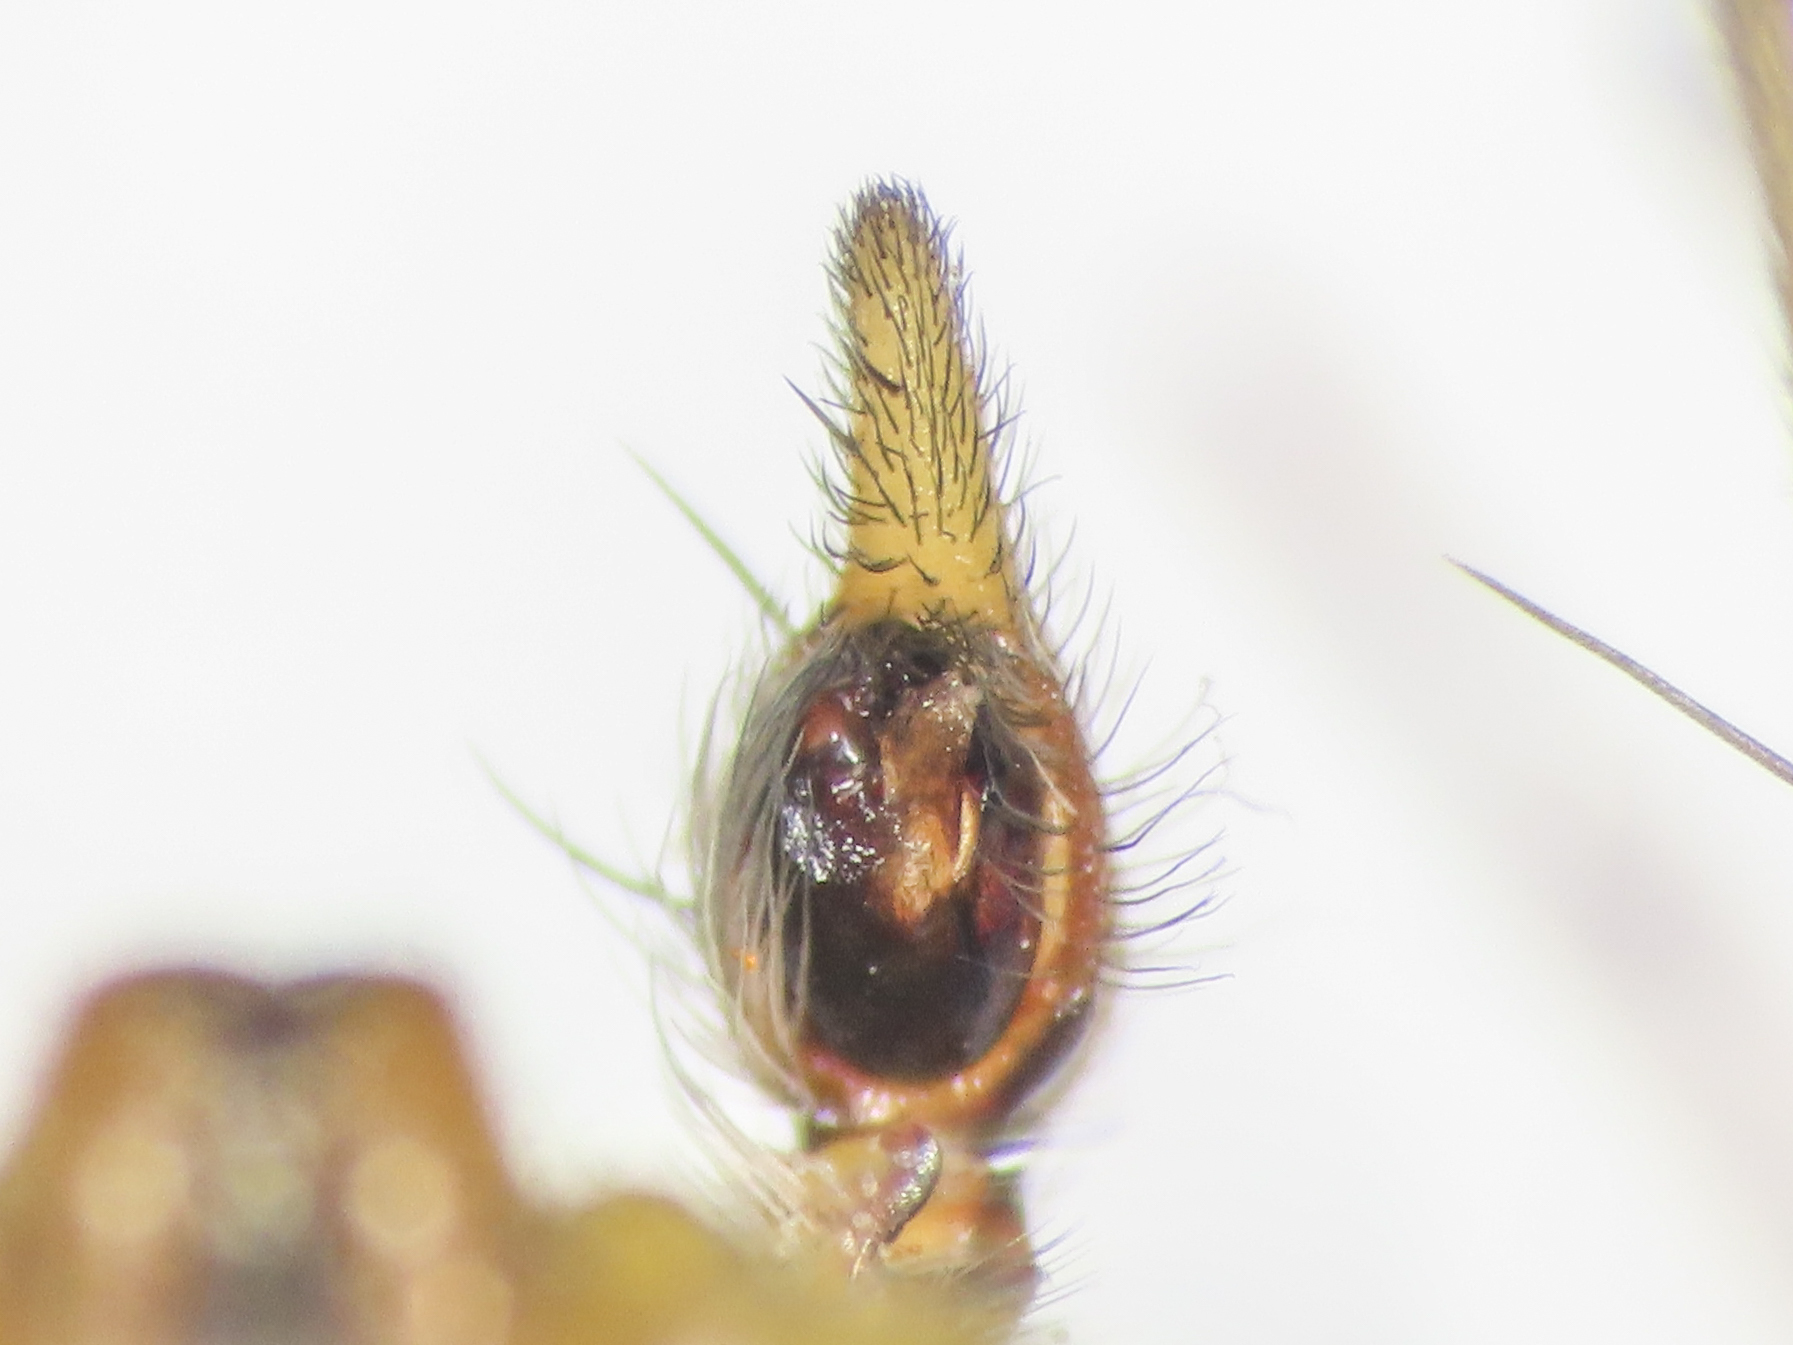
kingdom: Animalia
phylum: Arthropoda
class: Arachnida
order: Araneae
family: Oxyopidae
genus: Oxyopes
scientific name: Oxyopes lineatus
